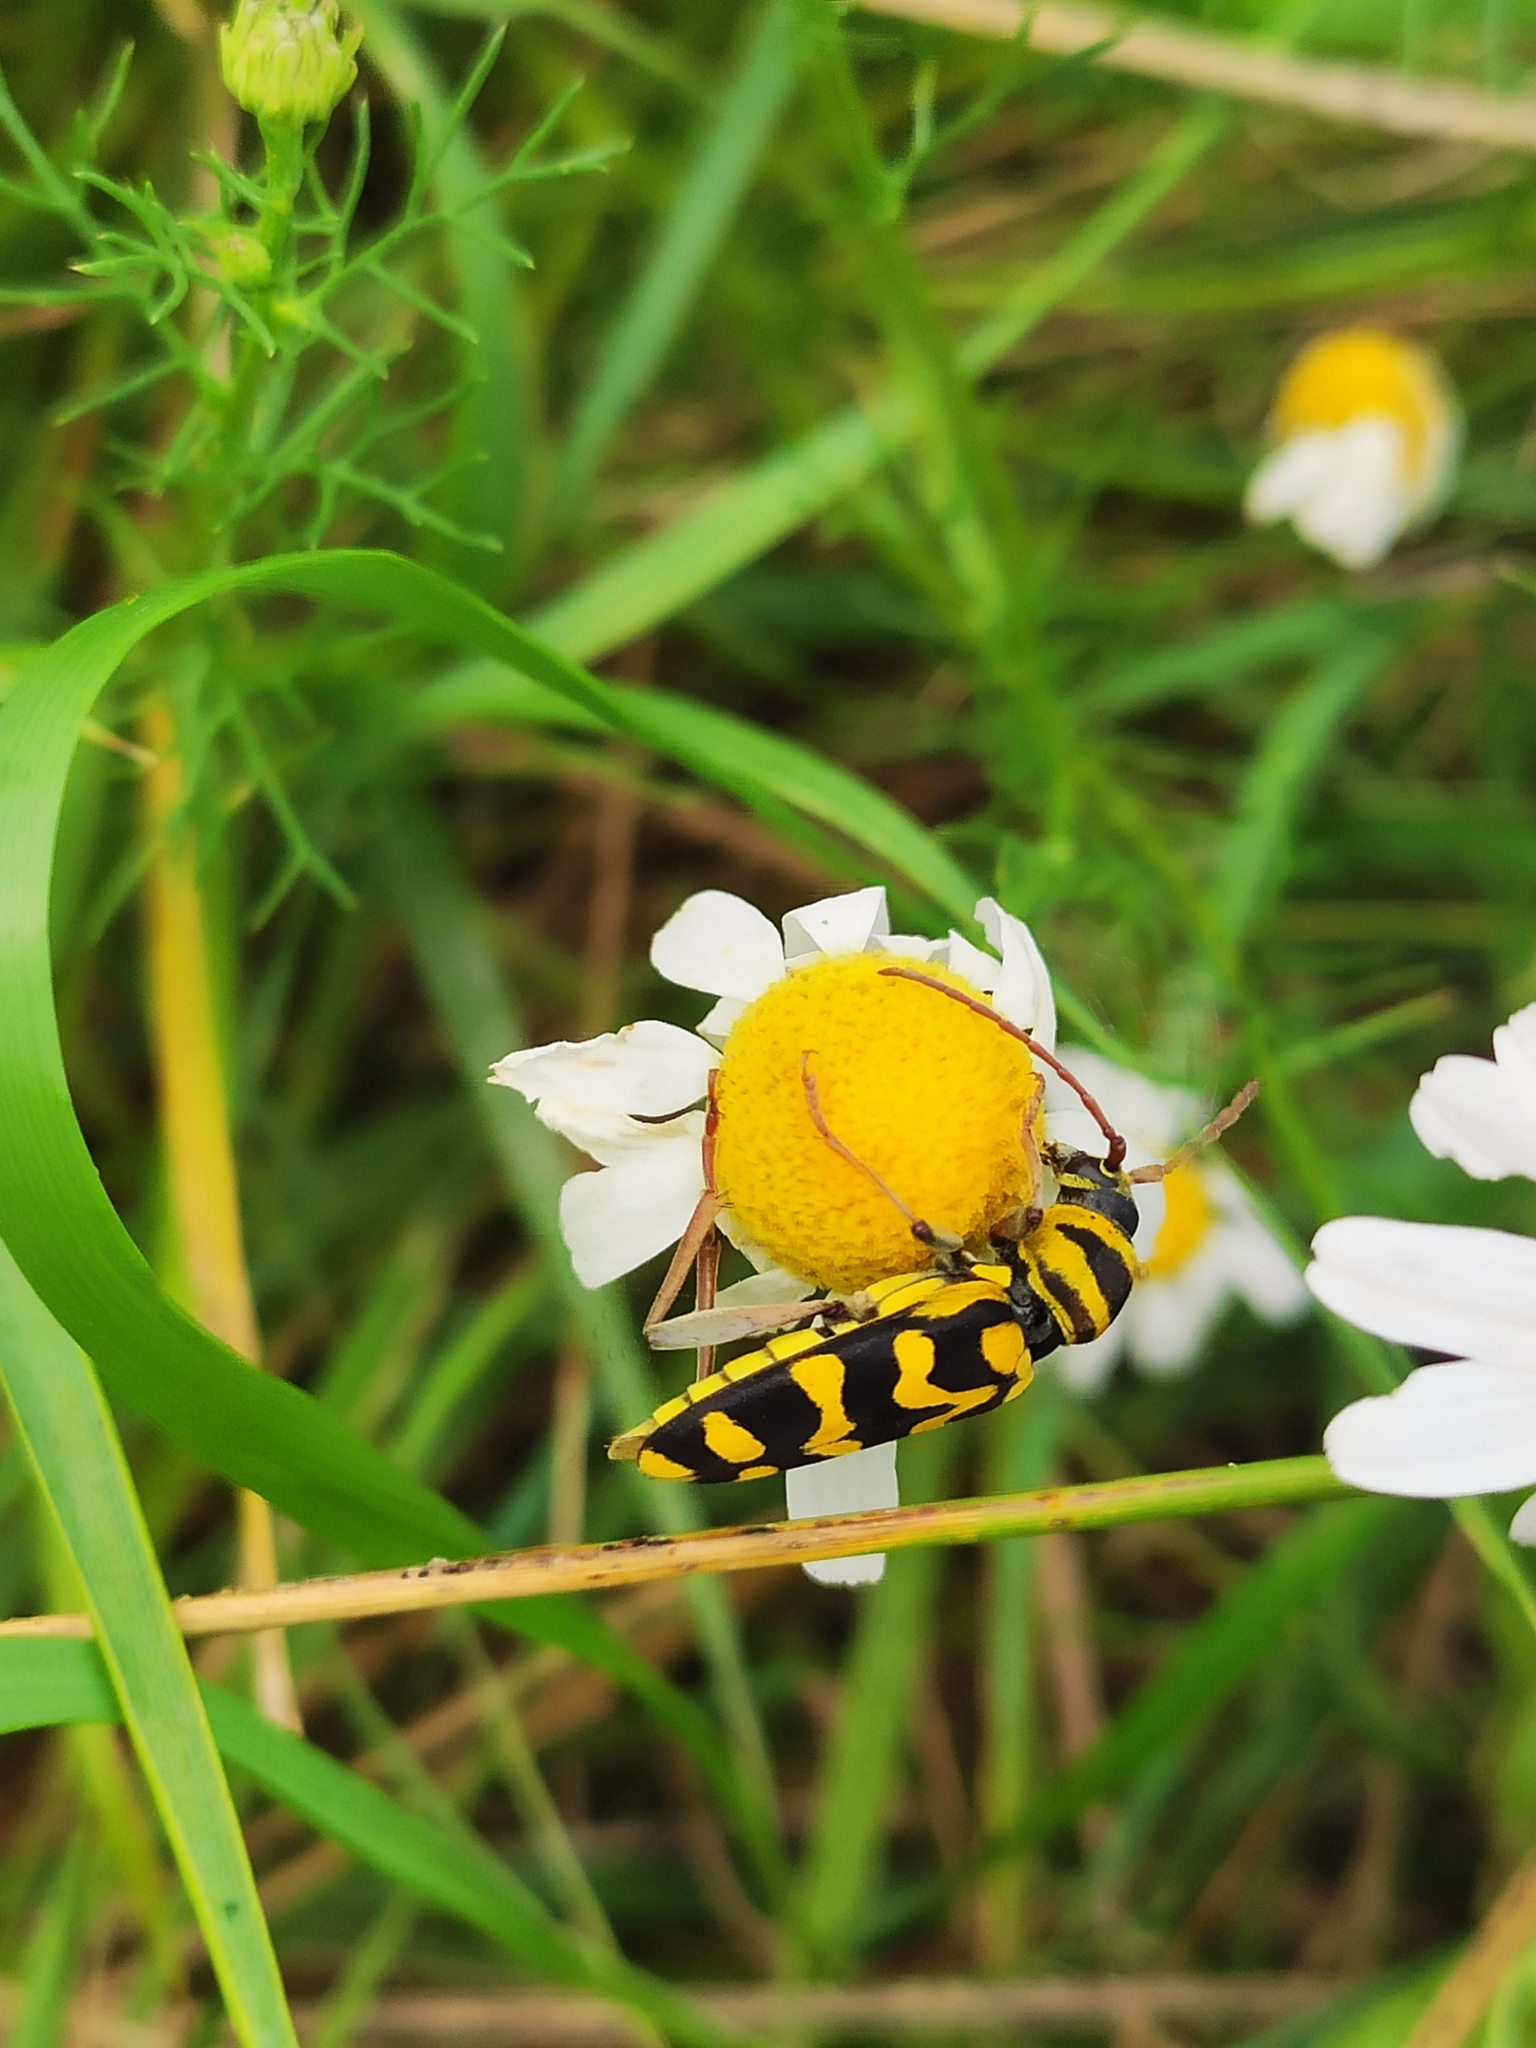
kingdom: Animalia
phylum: Arthropoda
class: Insecta
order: Coleoptera
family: Cerambycidae
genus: Neoplagionotus
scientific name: Neoplagionotus bobelayei
